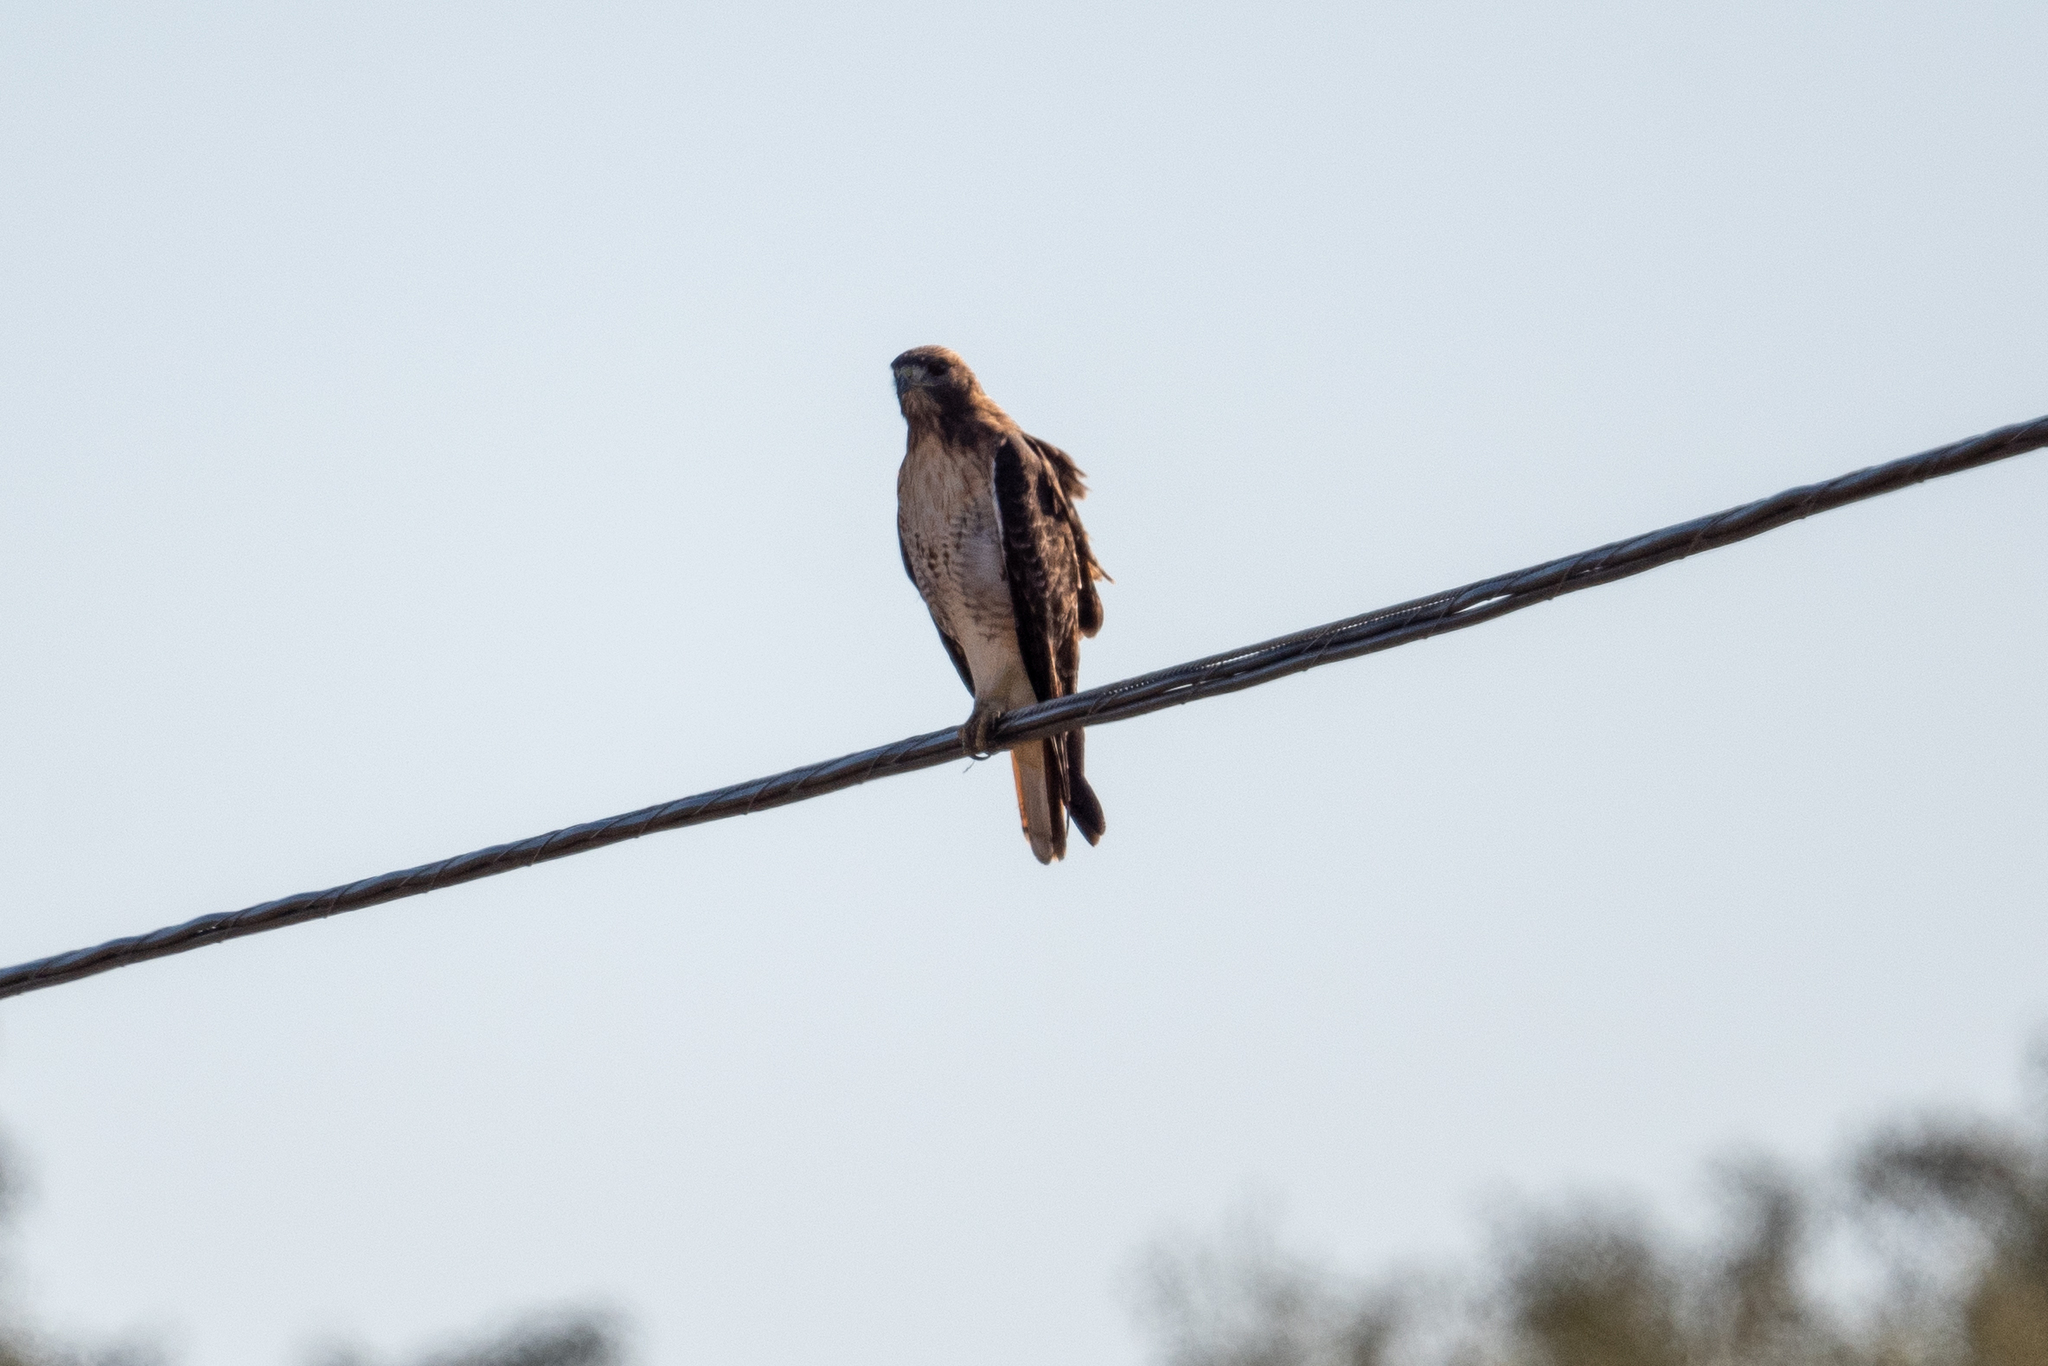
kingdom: Animalia
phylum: Chordata
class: Aves
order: Accipitriformes
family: Accipitridae
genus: Buteo
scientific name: Buteo jamaicensis
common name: Red-tailed hawk
